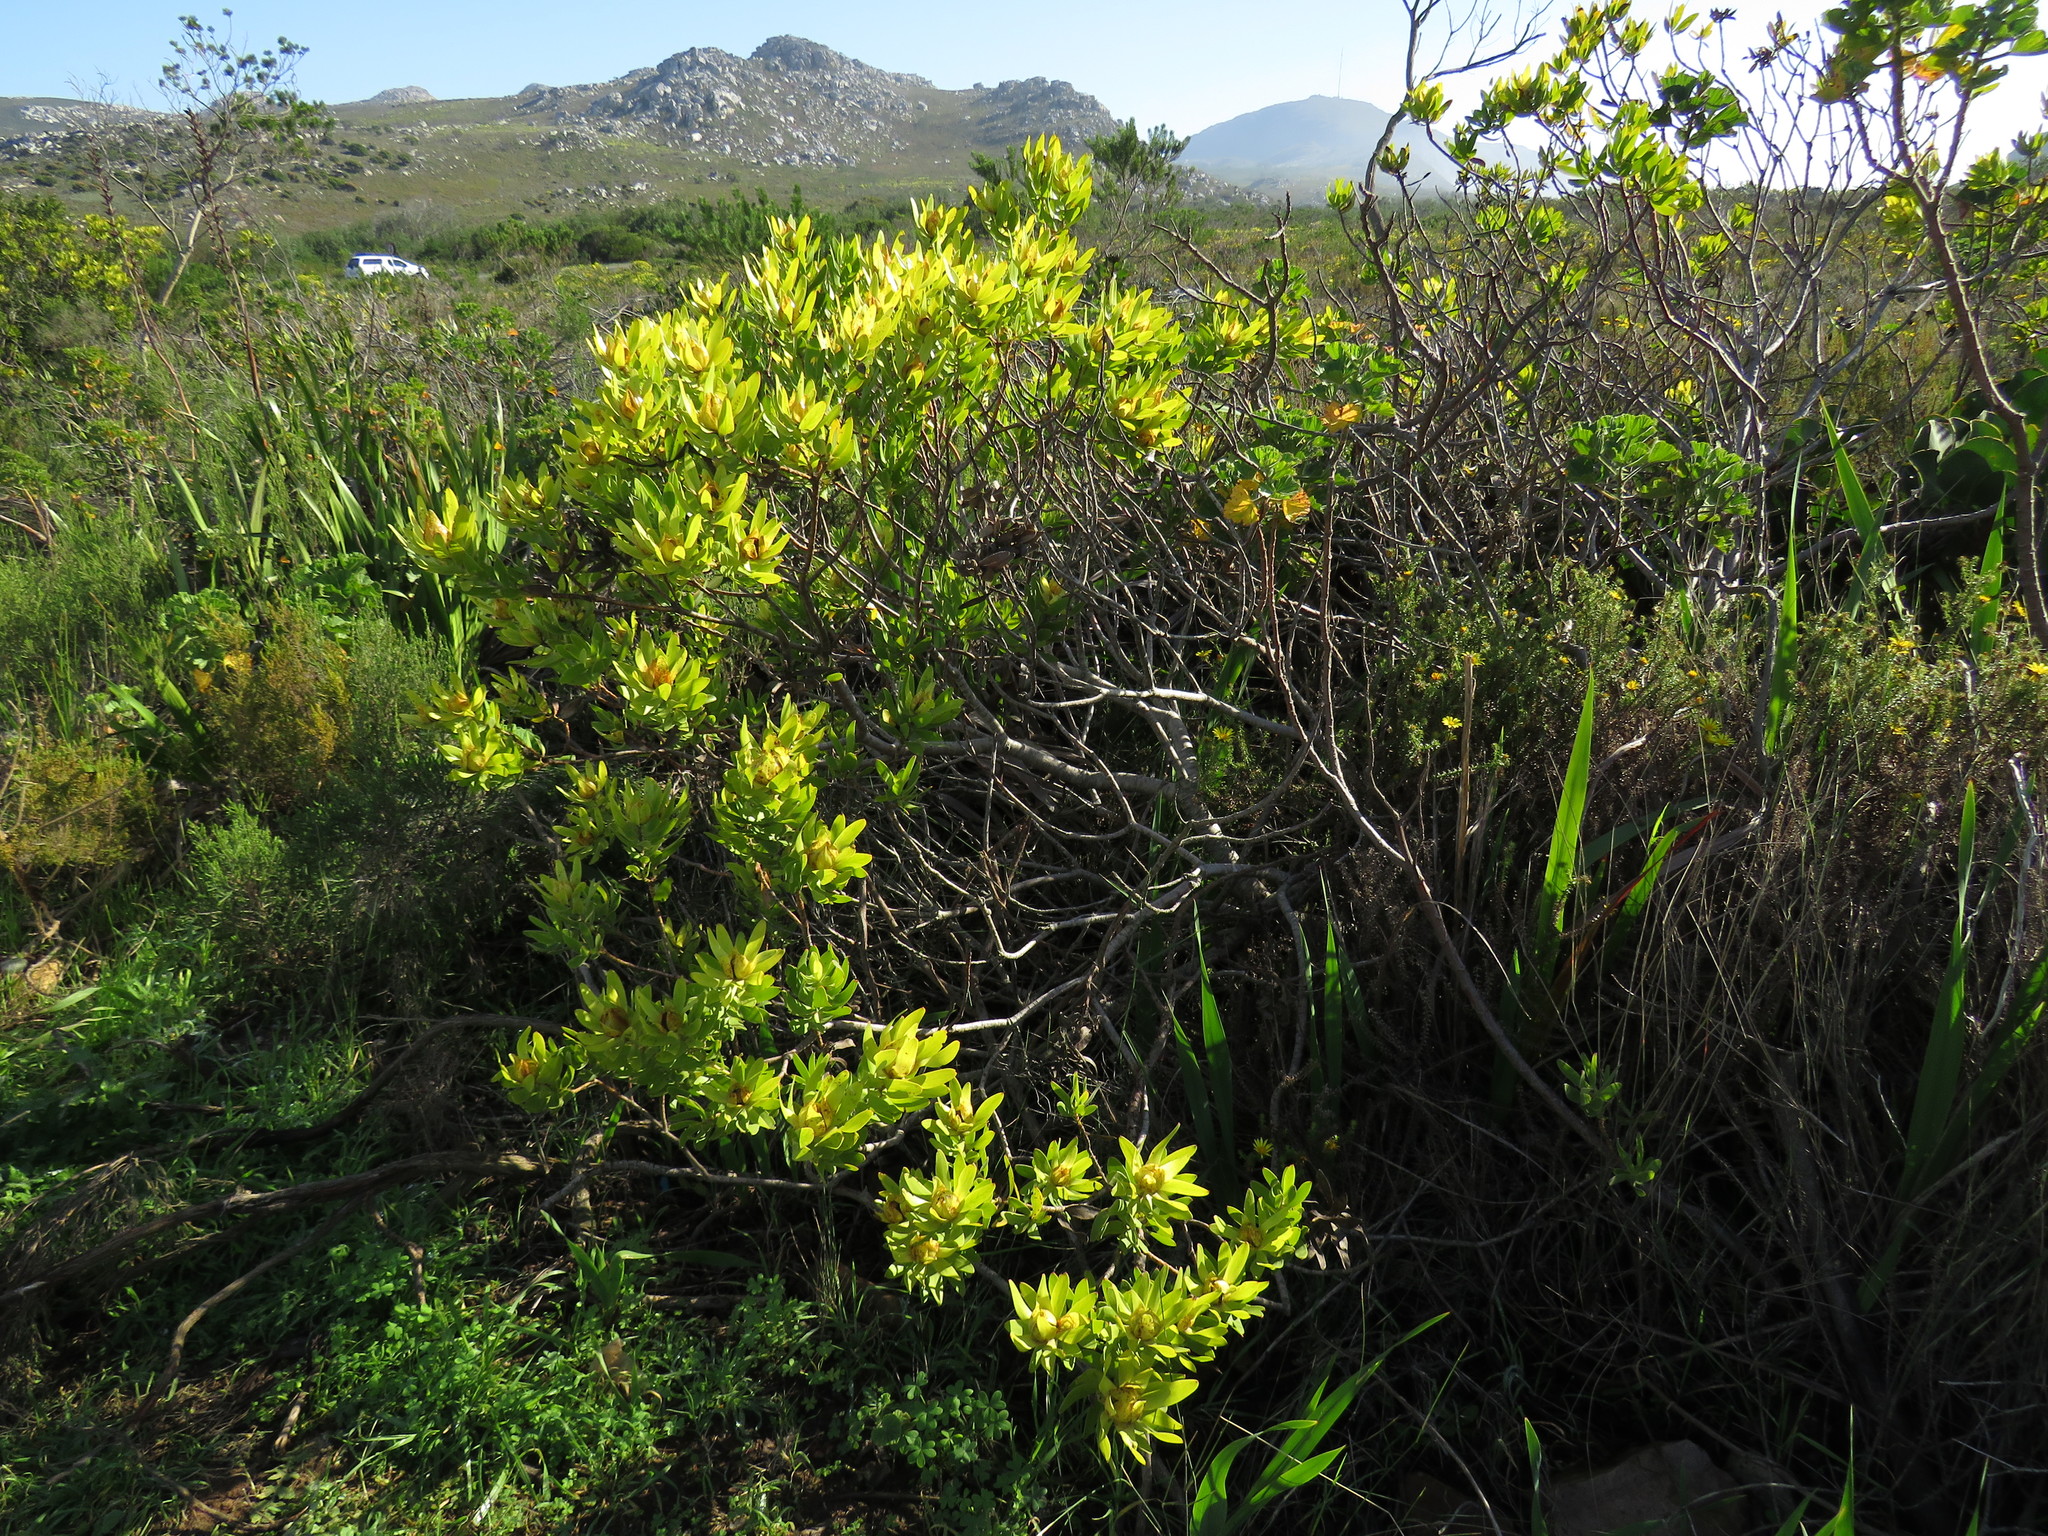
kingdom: Plantae
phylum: Tracheophyta
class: Magnoliopsida
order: Proteales
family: Proteaceae
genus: Leucadendron
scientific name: Leucadendron laureolum
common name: Golden sunshinebush
